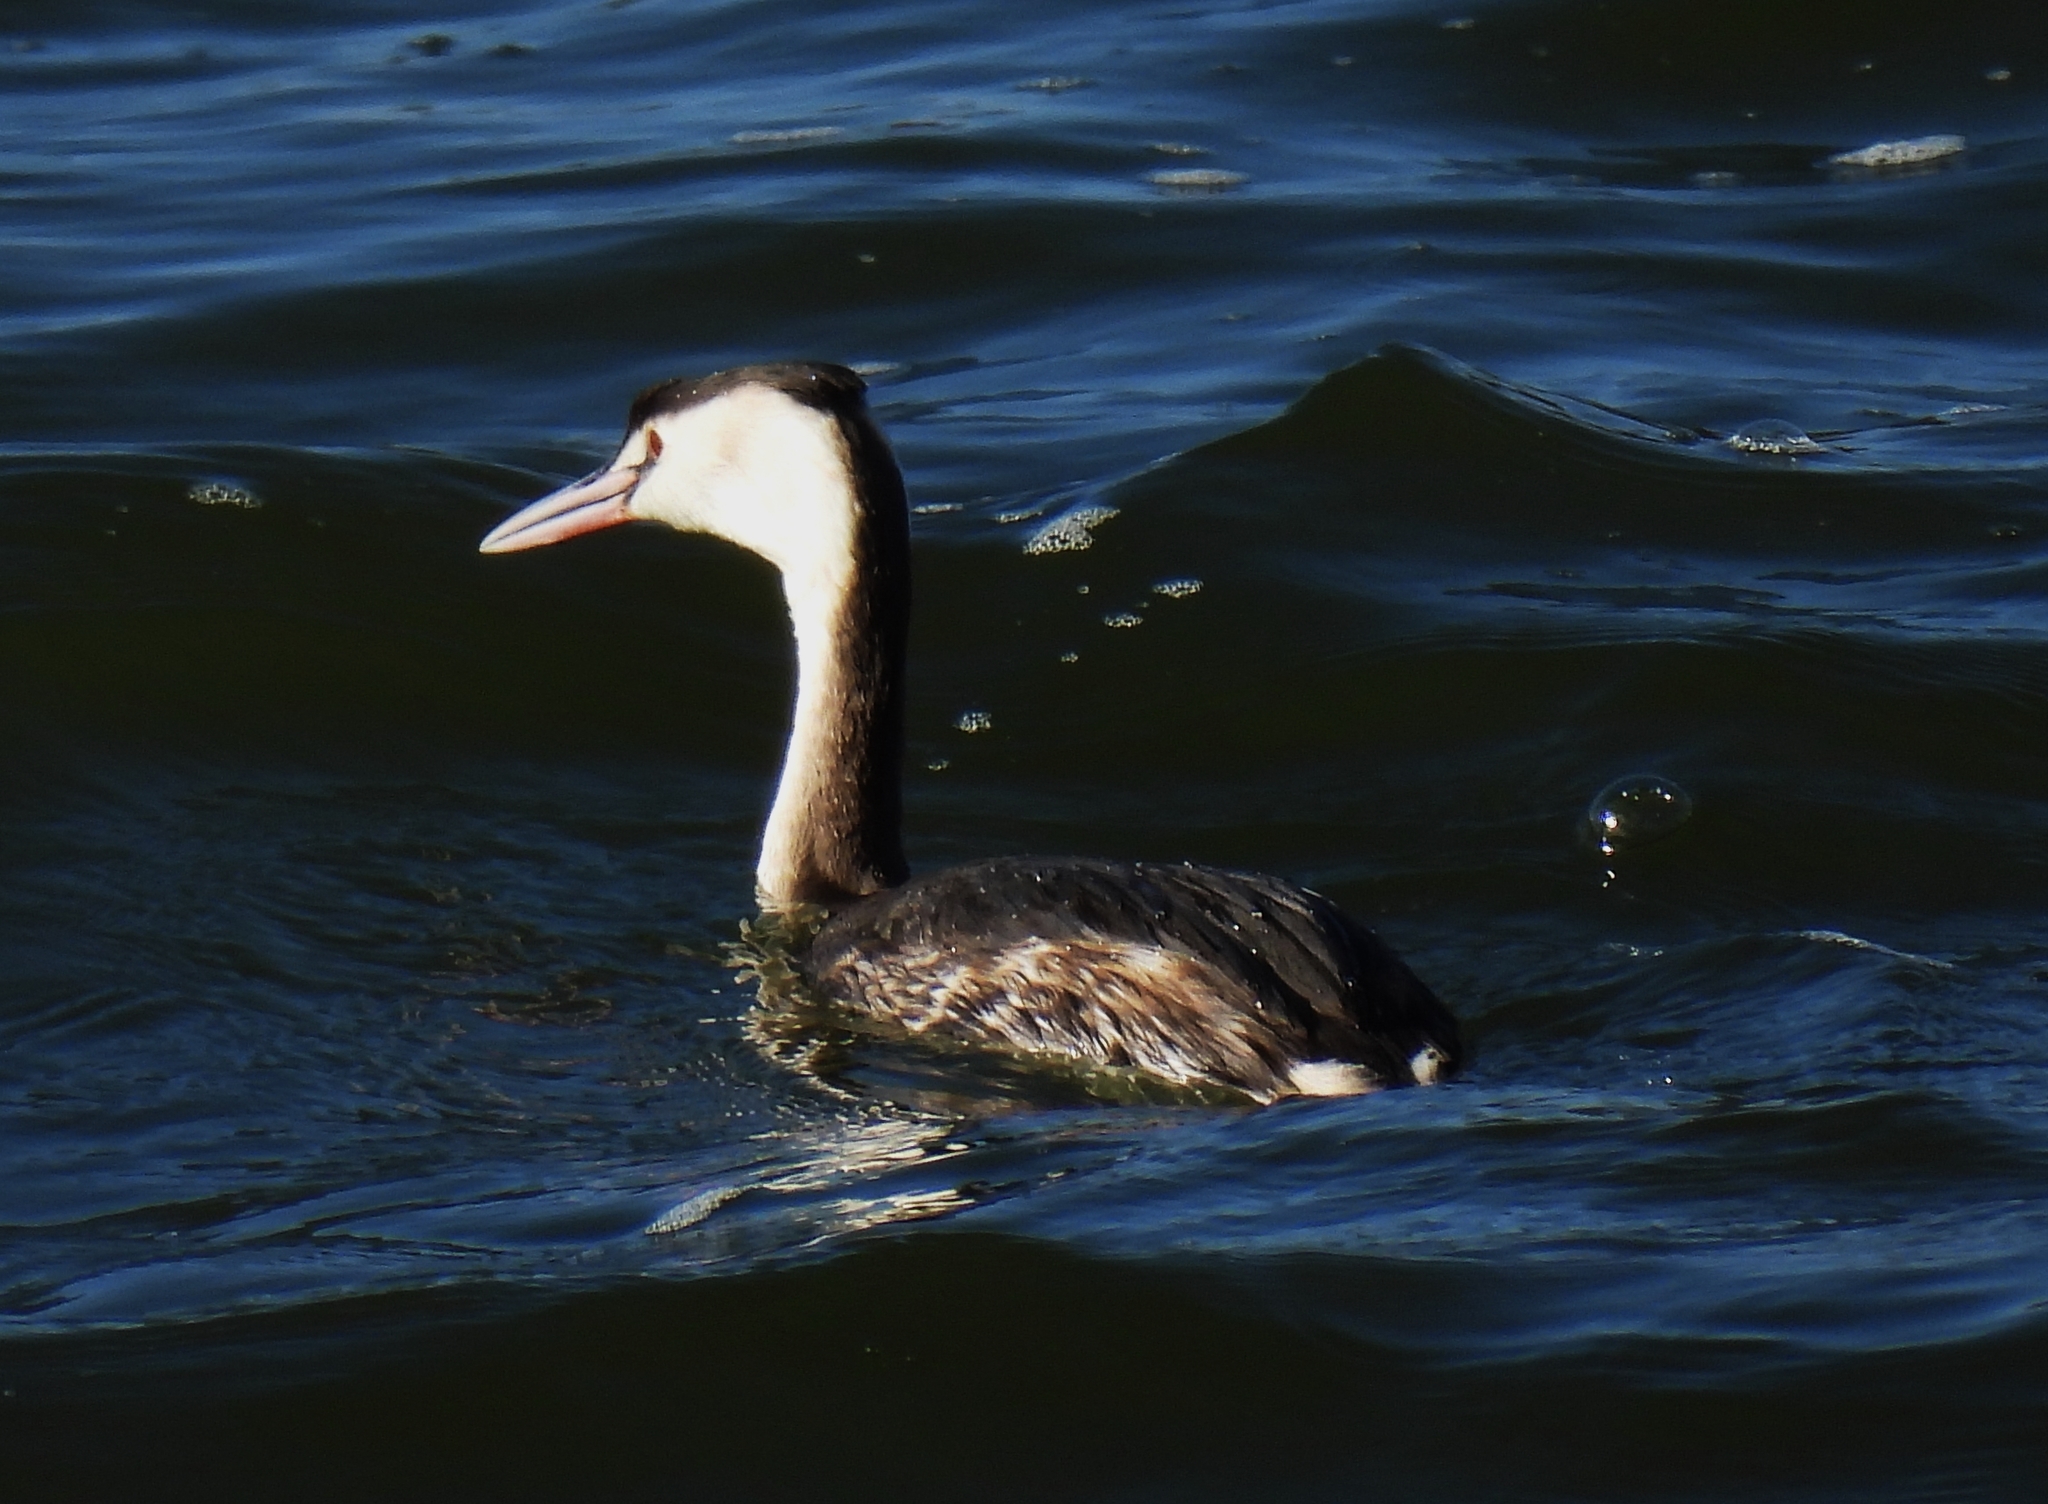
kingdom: Animalia
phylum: Chordata
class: Aves
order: Podicipediformes
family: Podicipedidae
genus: Podiceps
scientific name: Podiceps cristatus
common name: Great crested grebe
